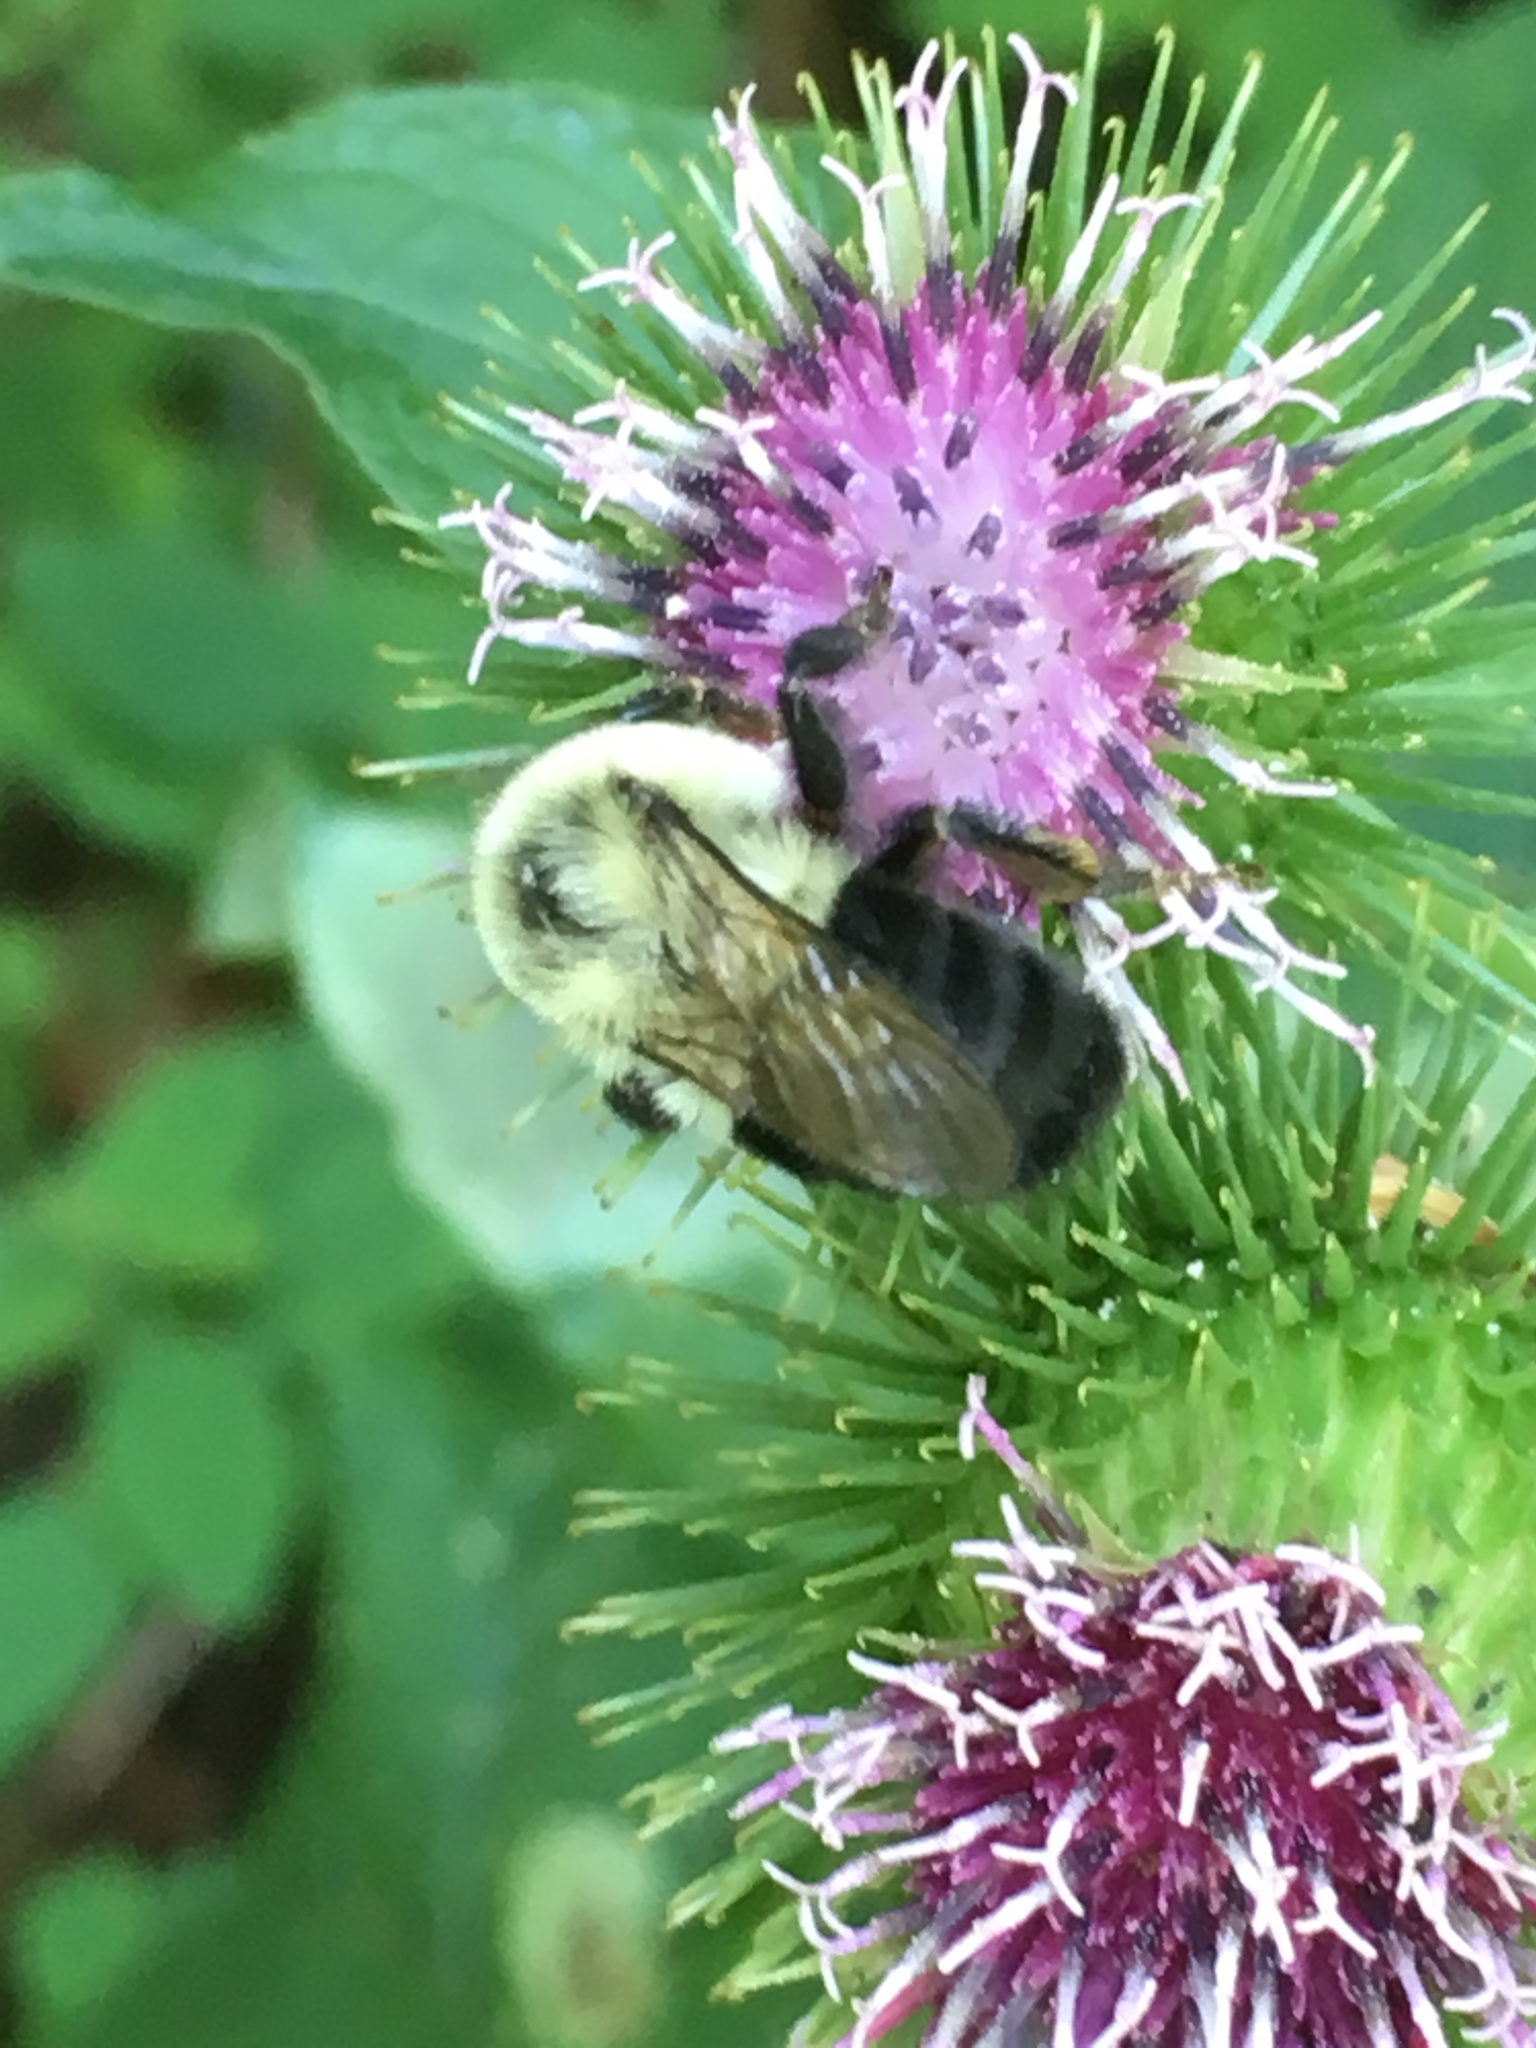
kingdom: Animalia
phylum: Arthropoda
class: Insecta
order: Hymenoptera
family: Apidae
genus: Bombus
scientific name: Bombus impatiens
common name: Common eastern bumble bee
